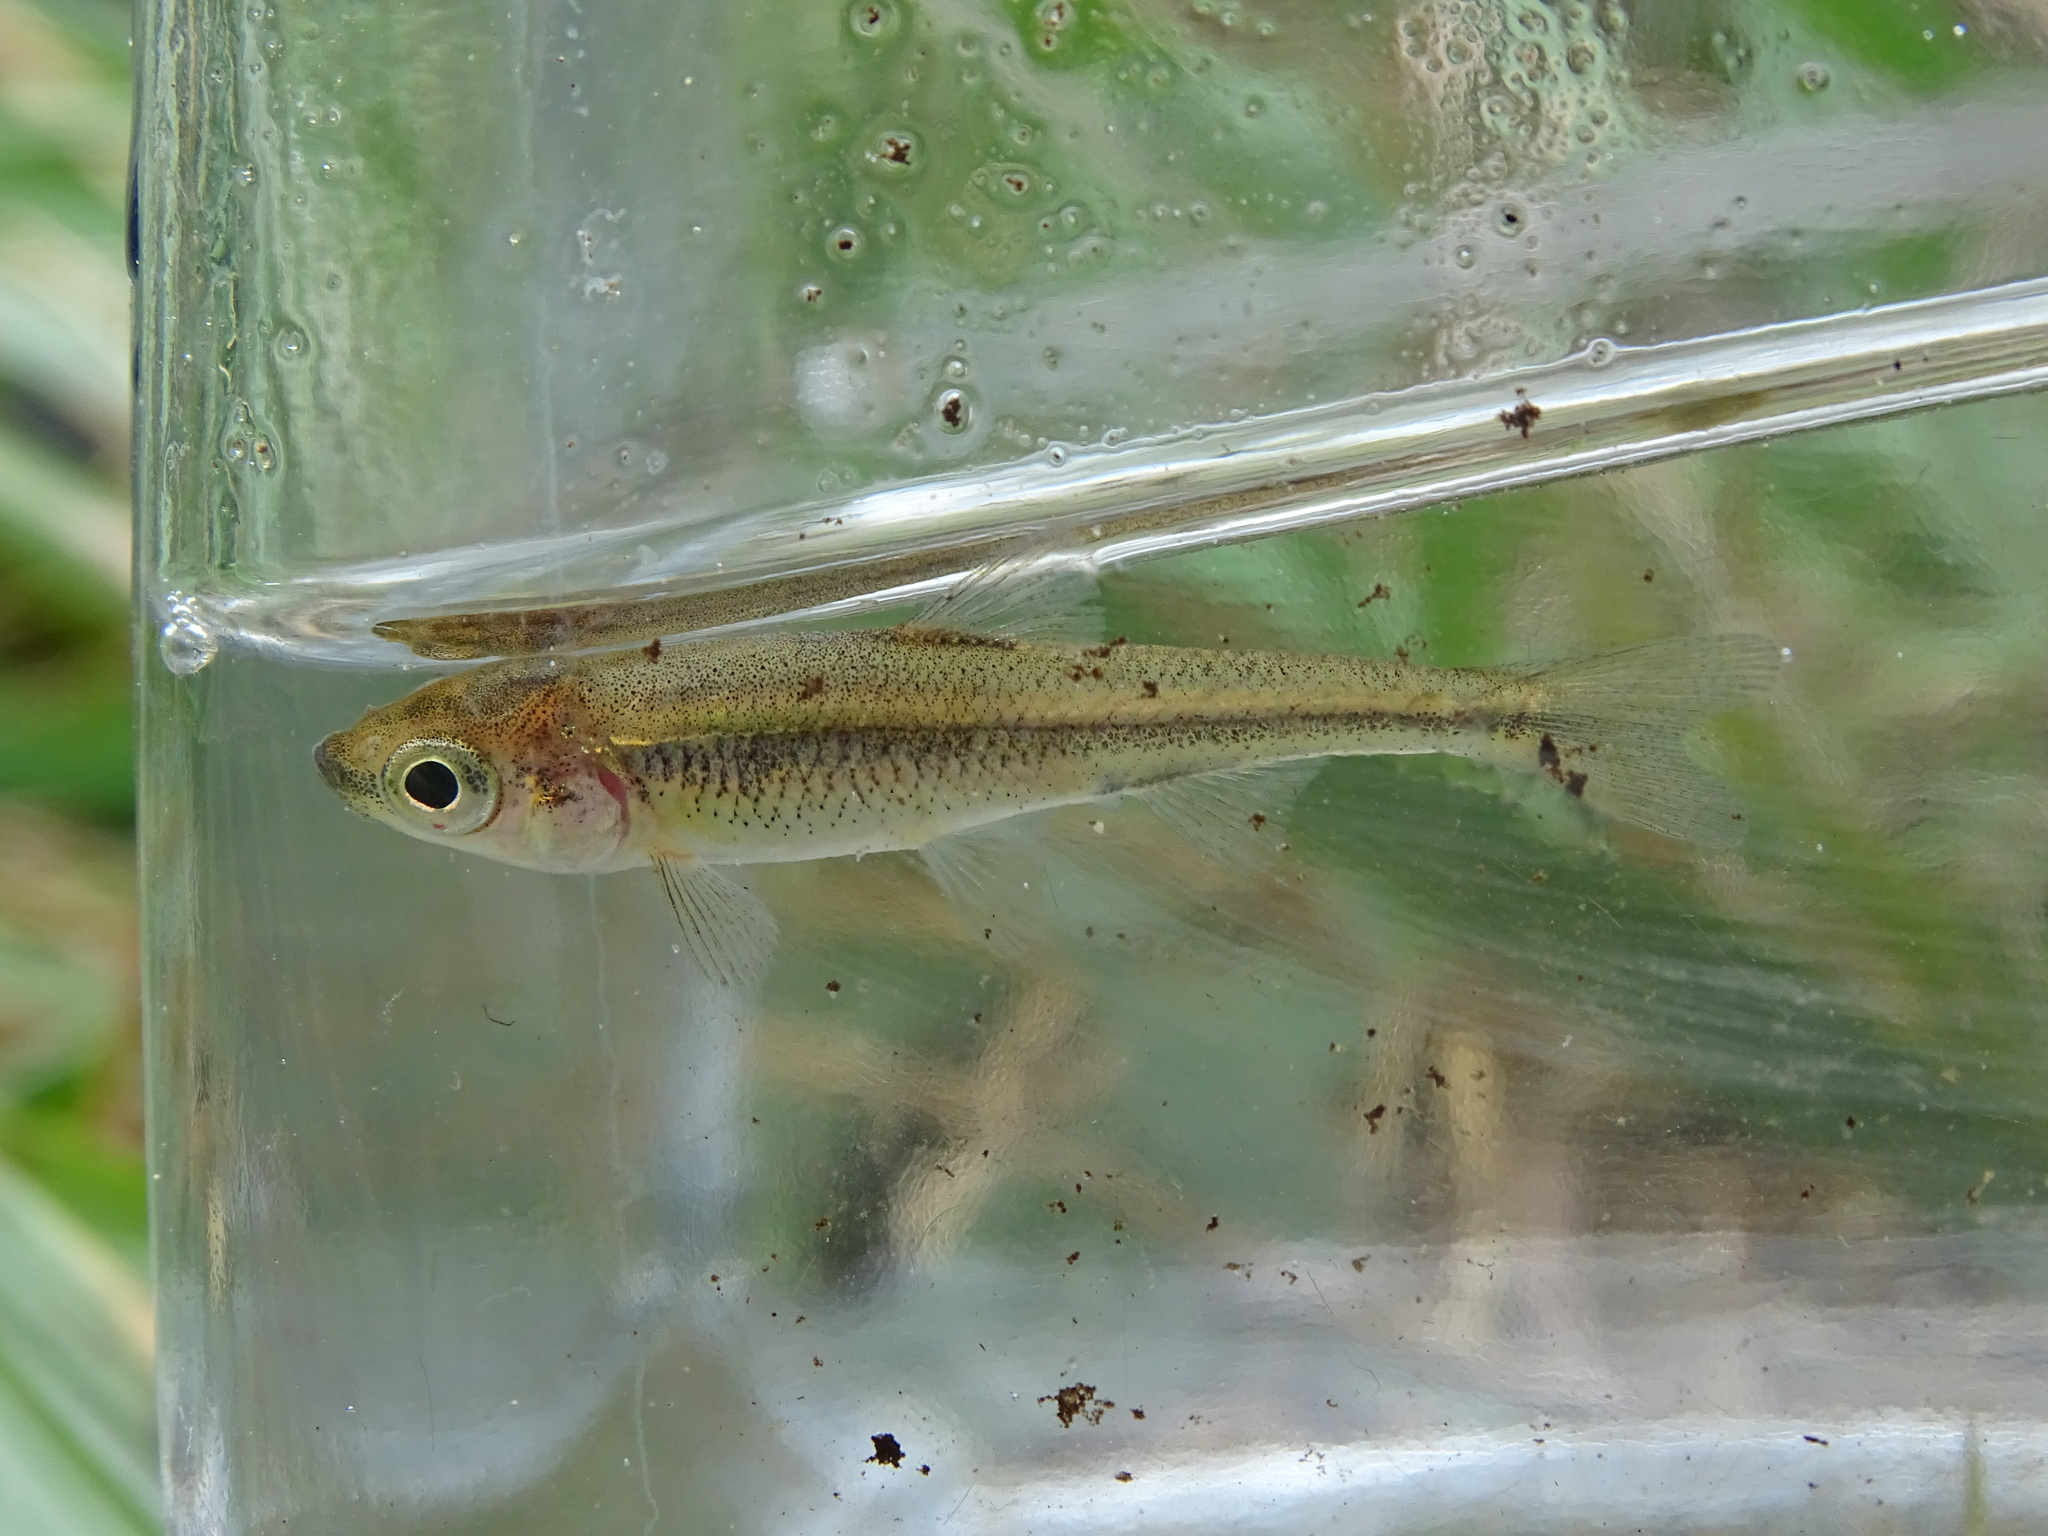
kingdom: Animalia
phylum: Chordata
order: Cypriniformes
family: Cyprinidae
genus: Luxilus
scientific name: Luxilus cornutus
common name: Common shiner
